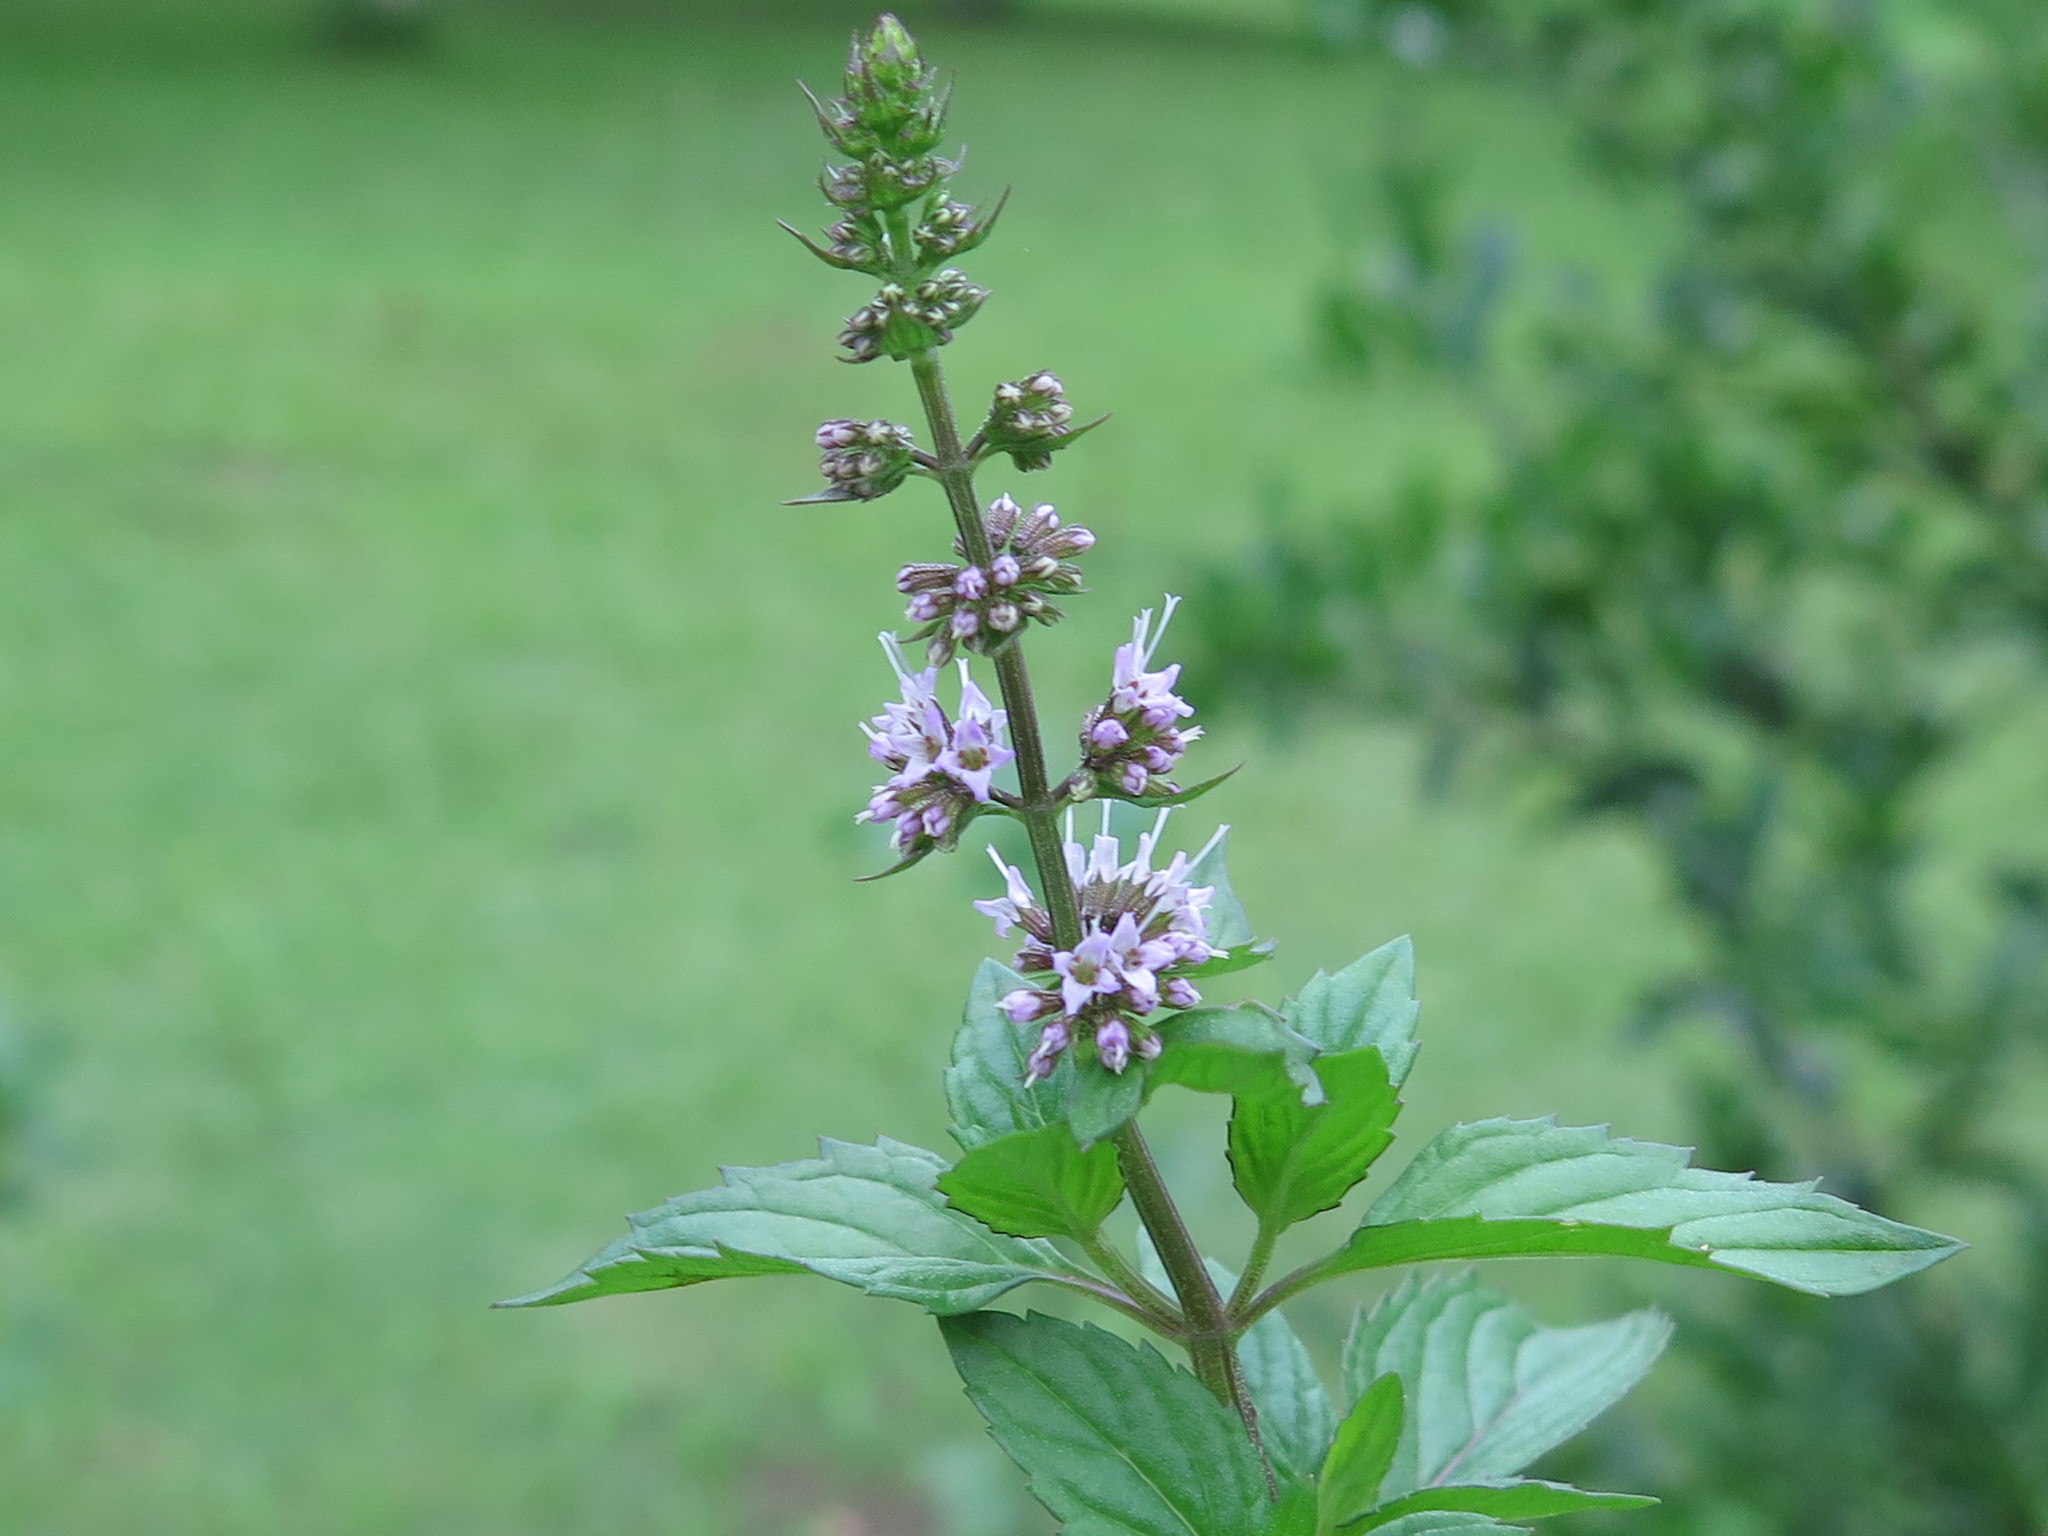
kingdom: Plantae
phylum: Tracheophyta
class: Magnoliopsida
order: Lamiales
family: Lamiaceae
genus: Mentha
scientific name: Mentha piperita
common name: Peppermint
